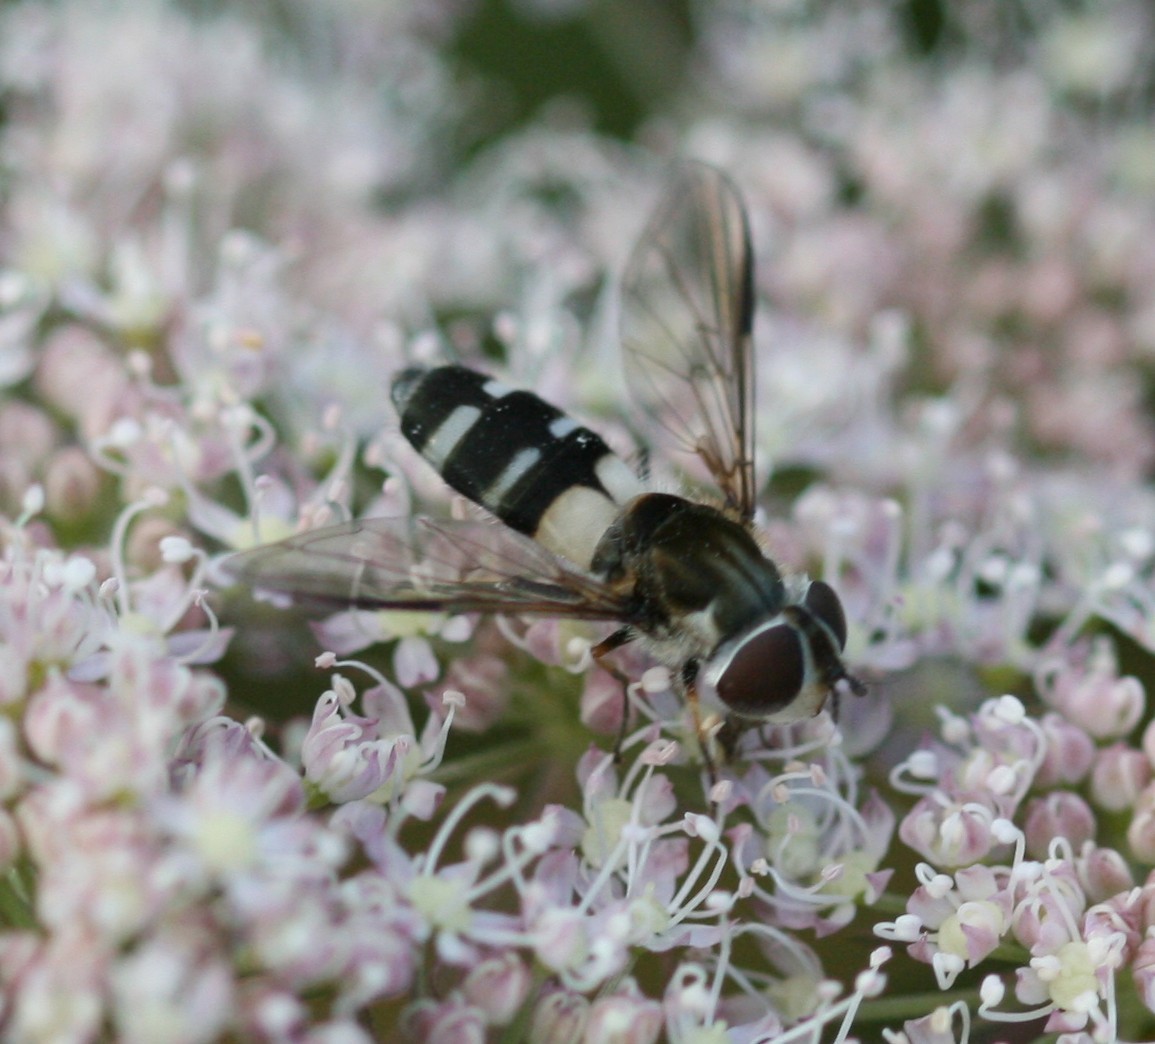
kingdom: Animalia
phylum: Arthropoda
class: Insecta
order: Diptera
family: Syrphidae
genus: Leucozona
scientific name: Leucozona laternaria
